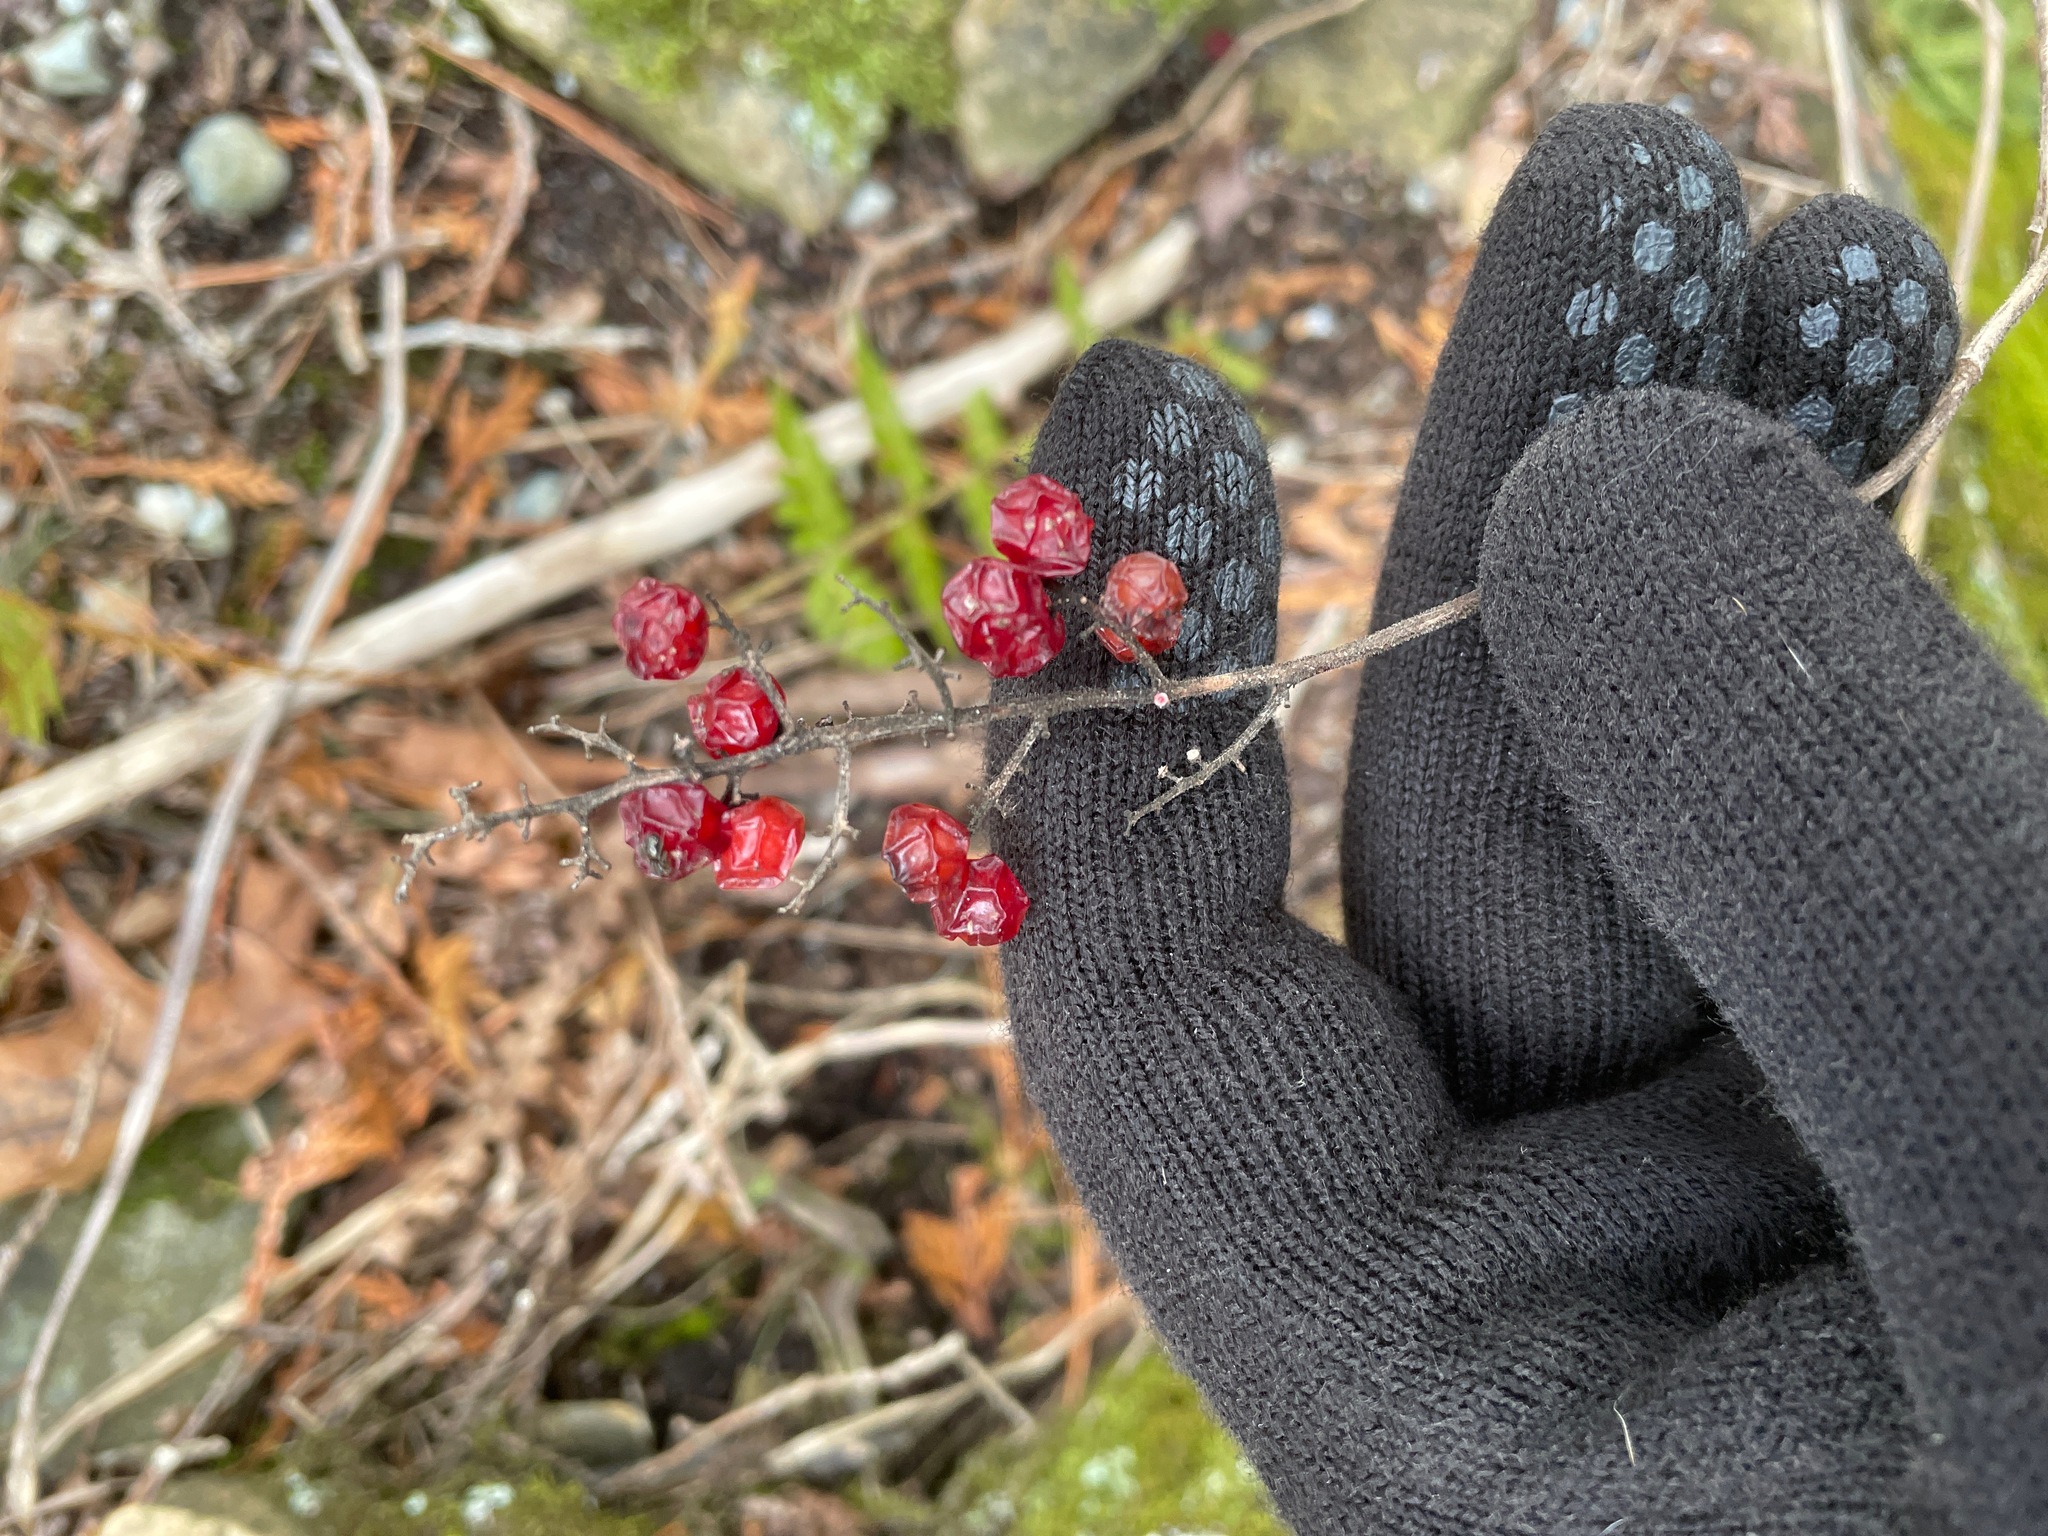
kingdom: Plantae
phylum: Tracheophyta
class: Liliopsida
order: Asparagales
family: Asparagaceae
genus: Maianthemum
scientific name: Maianthemum racemosum
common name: False spikenard
